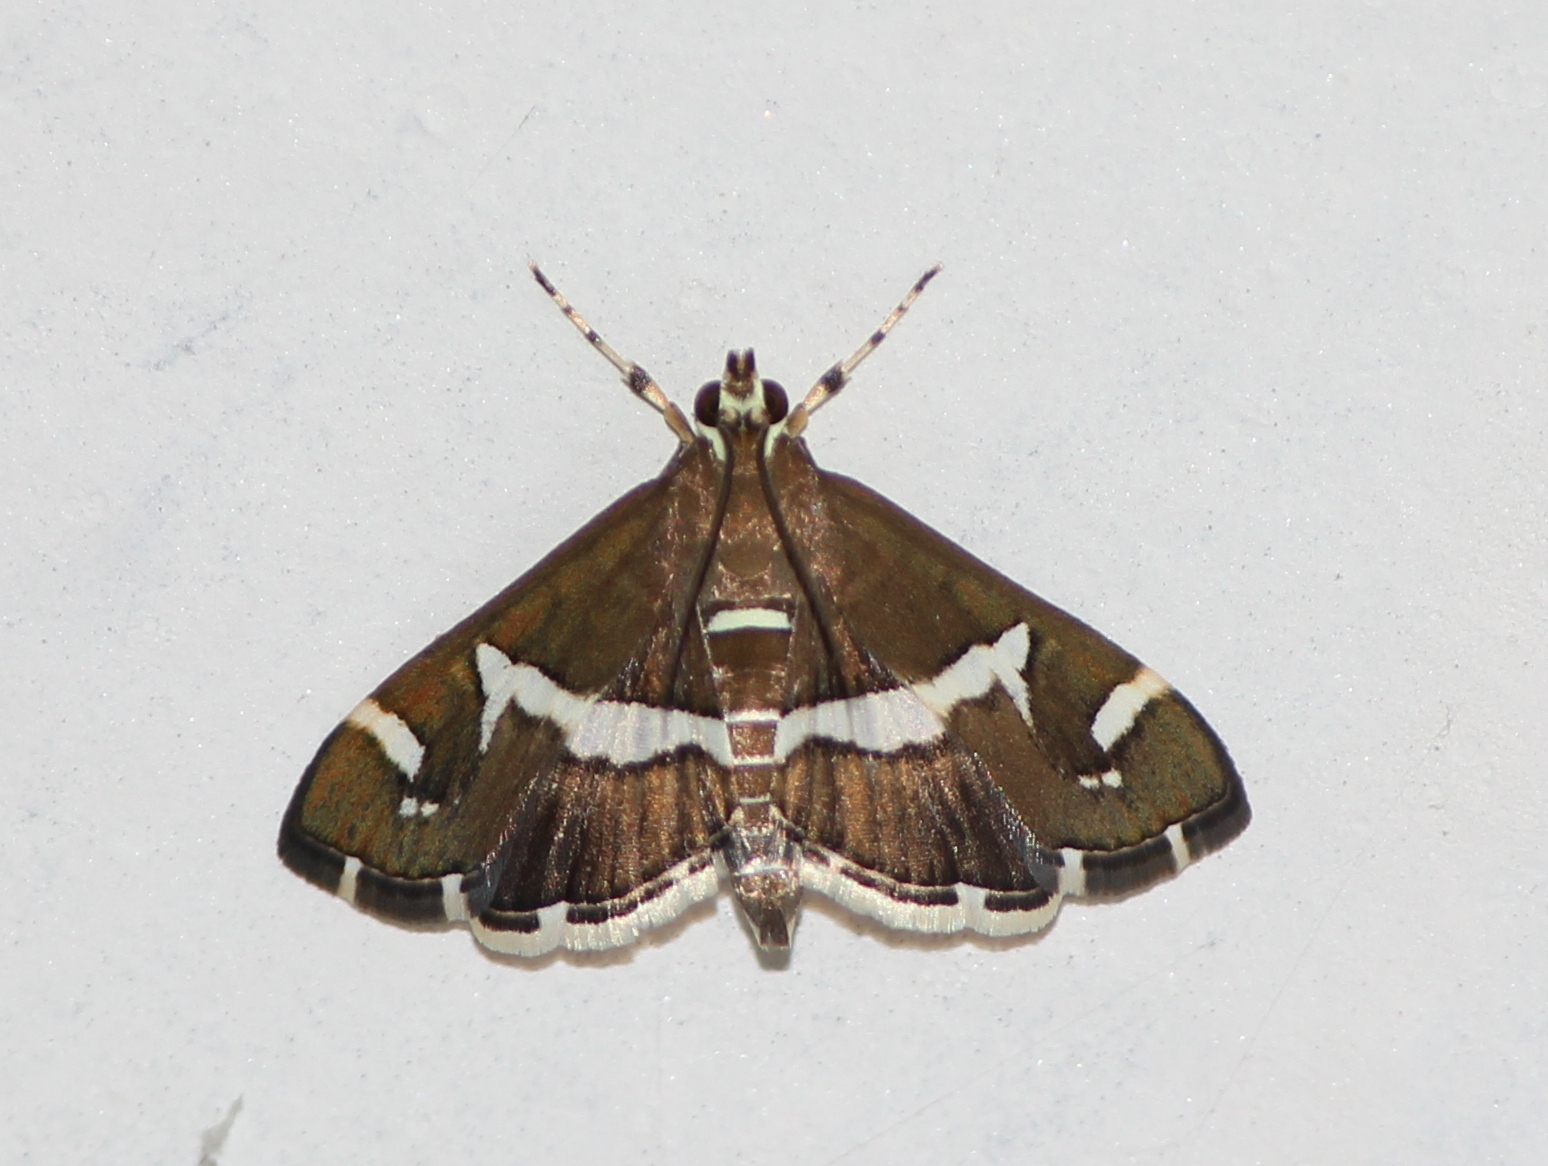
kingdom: Animalia
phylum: Arthropoda
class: Insecta
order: Lepidoptera
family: Crambidae
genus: Spoladea
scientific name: Spoladea recurvalis
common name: Beet webworm moth
